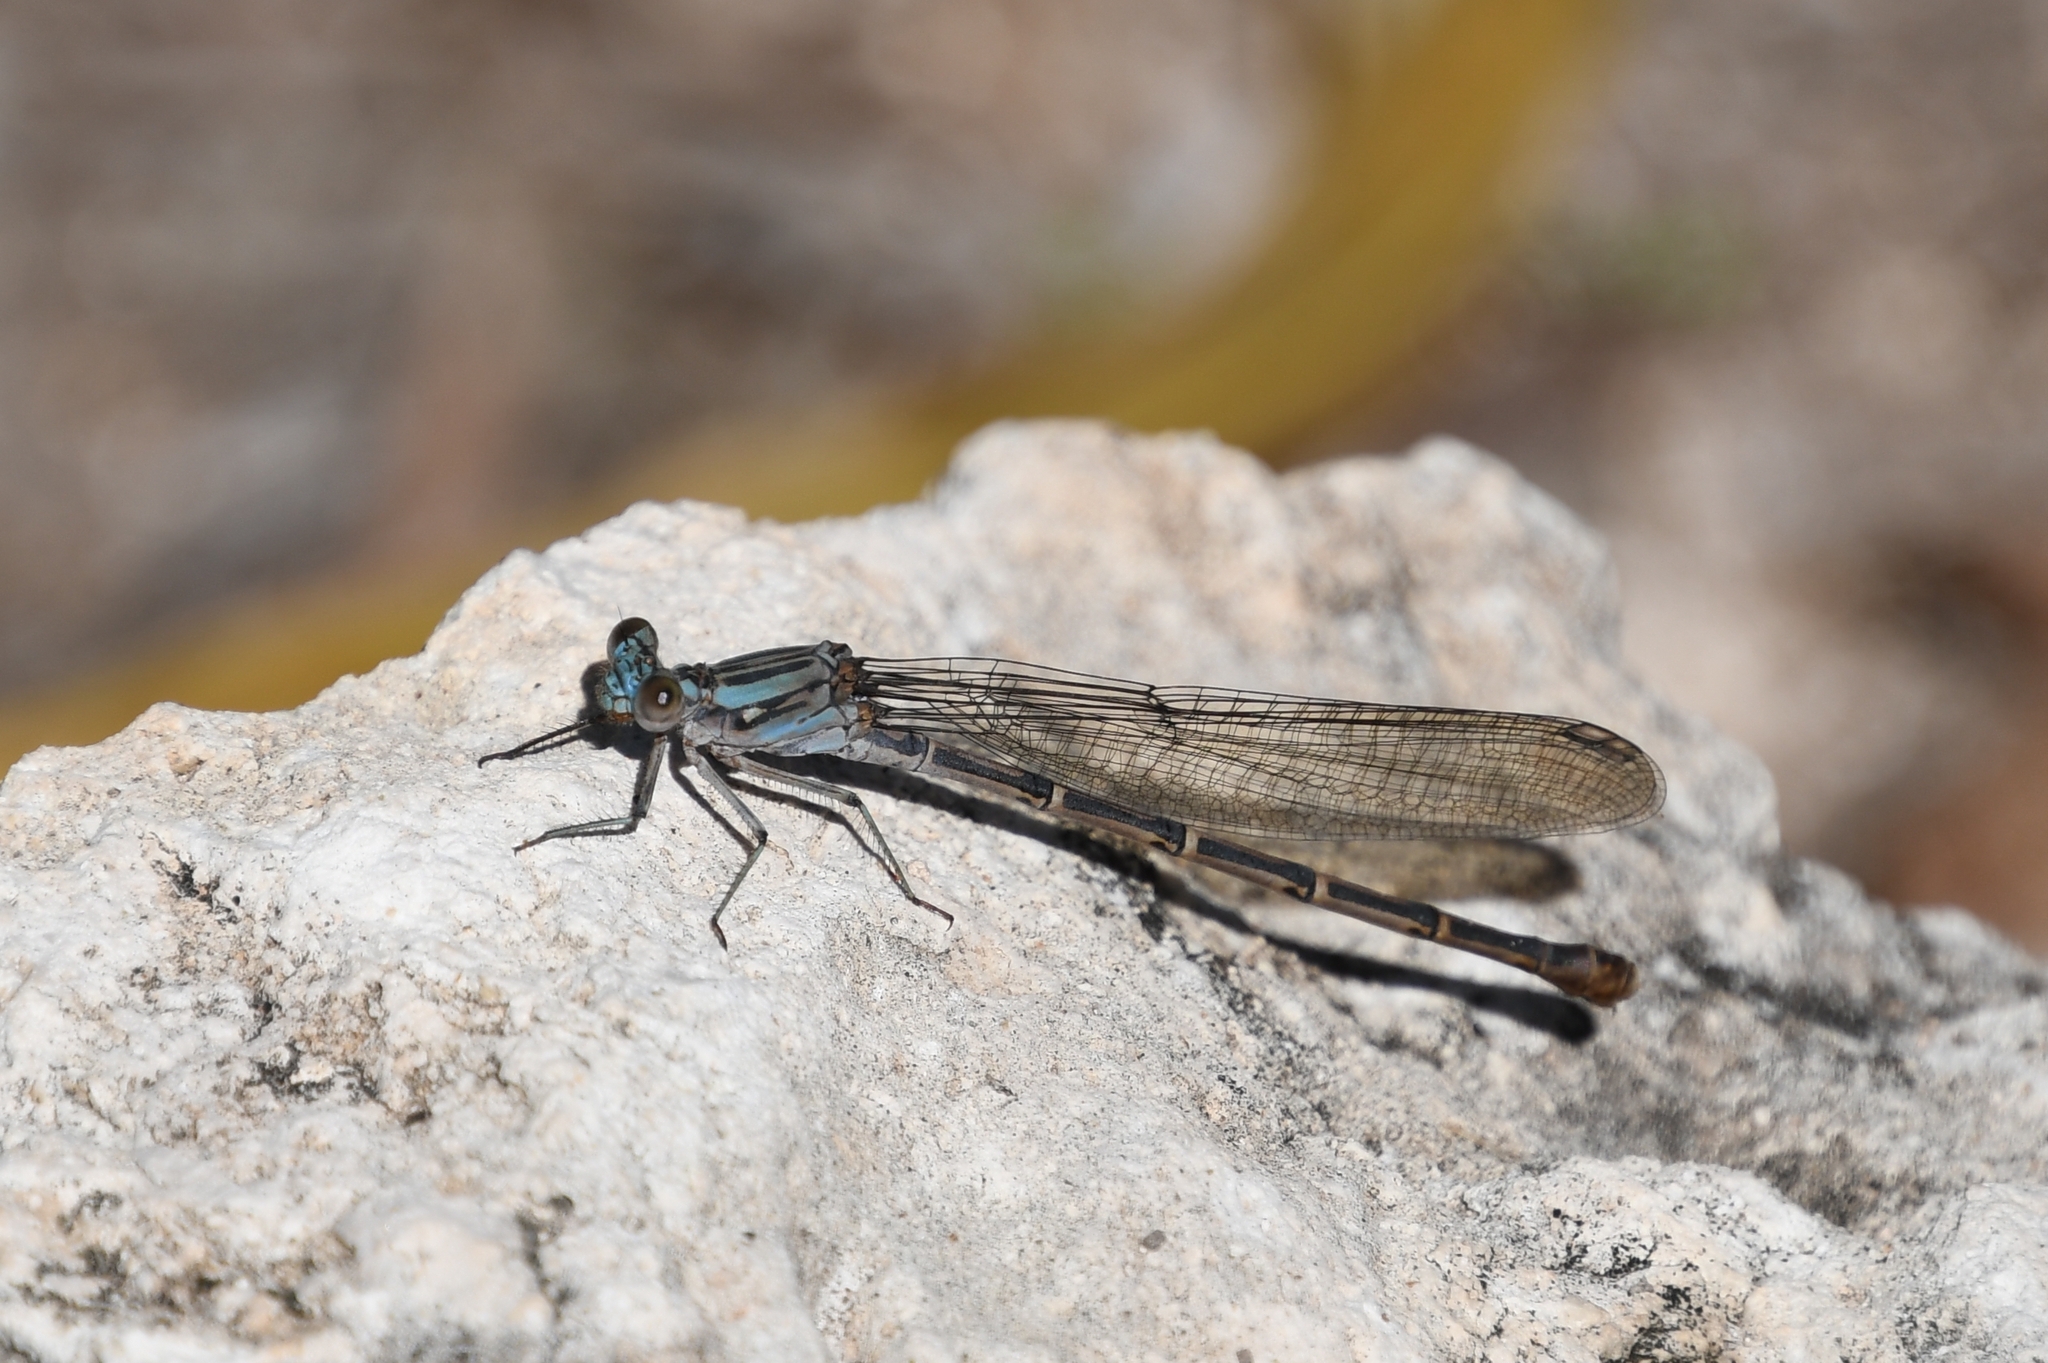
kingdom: Animalia
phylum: Arthropoda
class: Insecta
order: Odonata
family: Coenagrionidae
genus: Argia
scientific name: Argia lugens
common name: Sooty dancer
